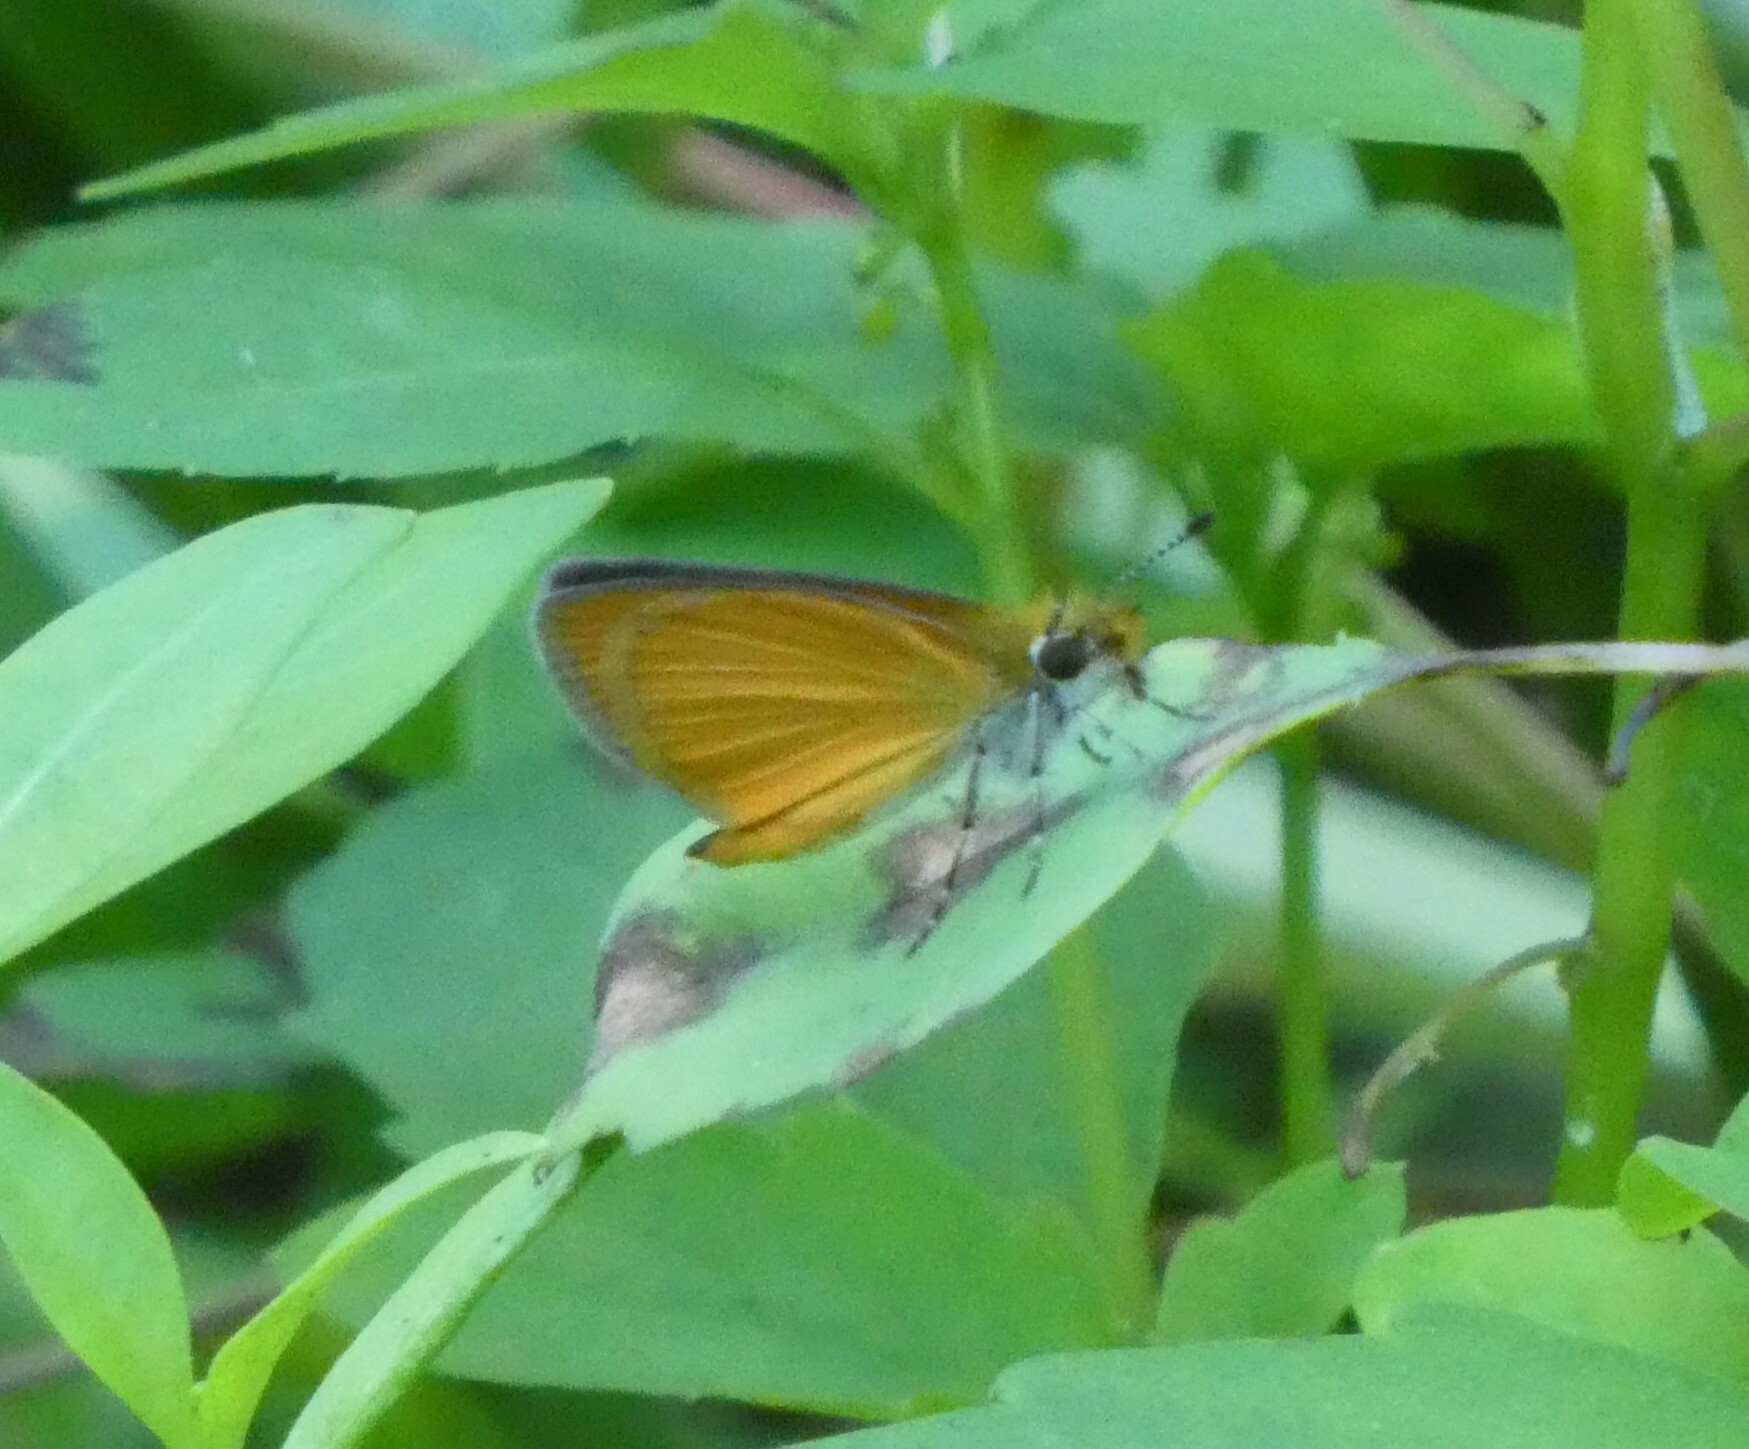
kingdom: Animalia
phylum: Arthropoda
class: Insecta
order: Lepidoptera
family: Hesperiidae
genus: Ancyloxypha
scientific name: Ancyloxypha numitor
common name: Least skipper
